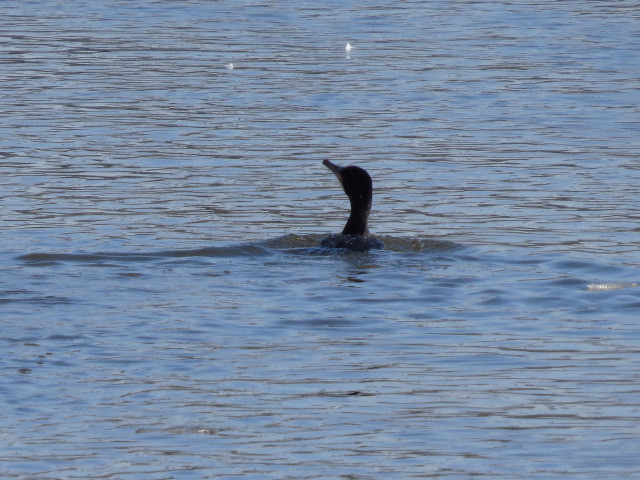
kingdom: Animalia
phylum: Chordata
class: Aves
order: Suliformes
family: Phalacrocoracidae
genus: Phalacrocorax
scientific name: Phalacrocorax carbo
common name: Great cormorant
